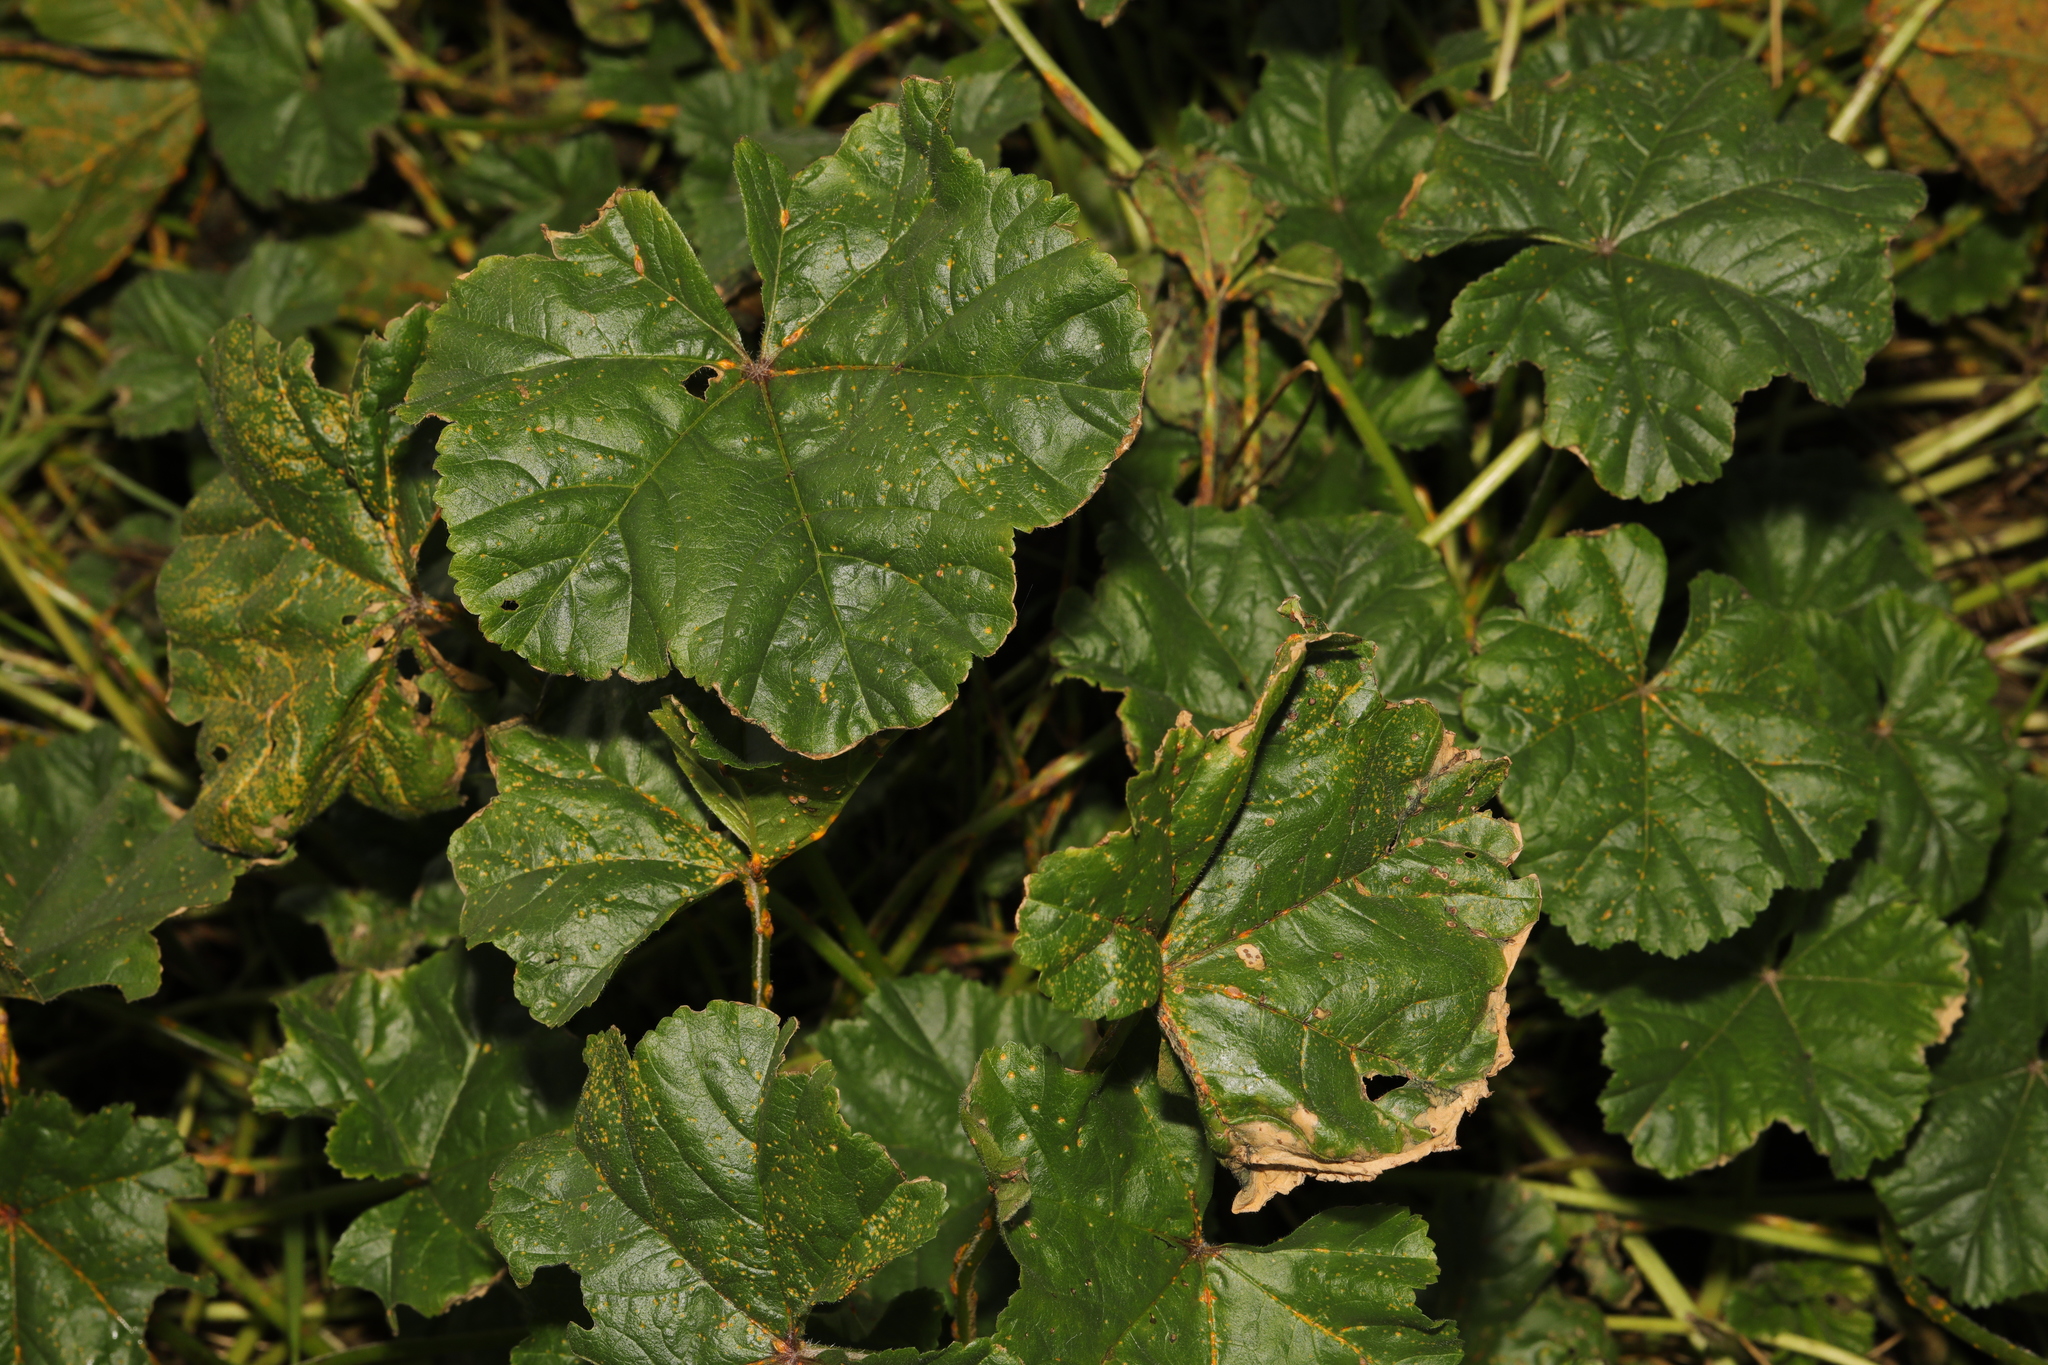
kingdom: Plantae
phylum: Tracheophyta
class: Magnoliopsida
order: Malvales
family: Malvaceae
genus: Malva
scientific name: Malva sylvestris
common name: Common mallow
